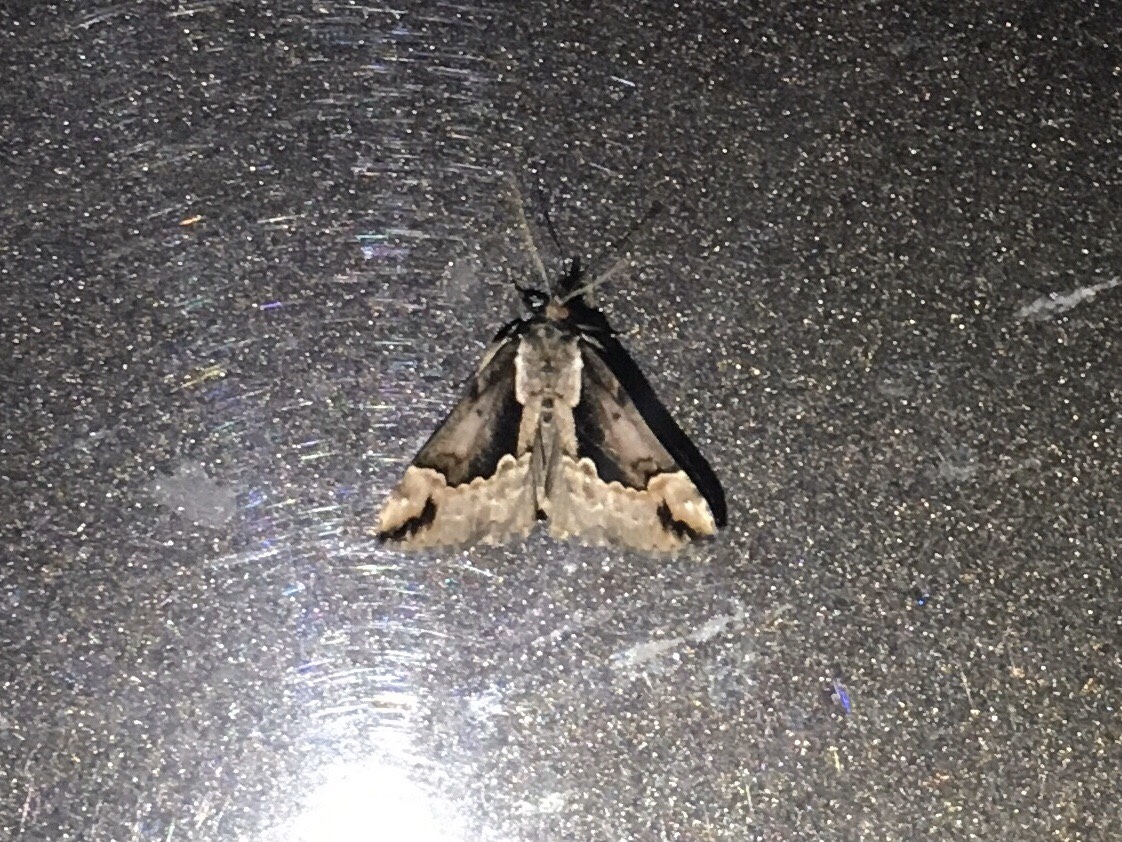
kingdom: Animalia
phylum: Arthropoda
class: Insecta
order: Lepidoptera
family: Erebidae
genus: Hypena
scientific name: Hypena baltimoralis
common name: Baltimore snout
